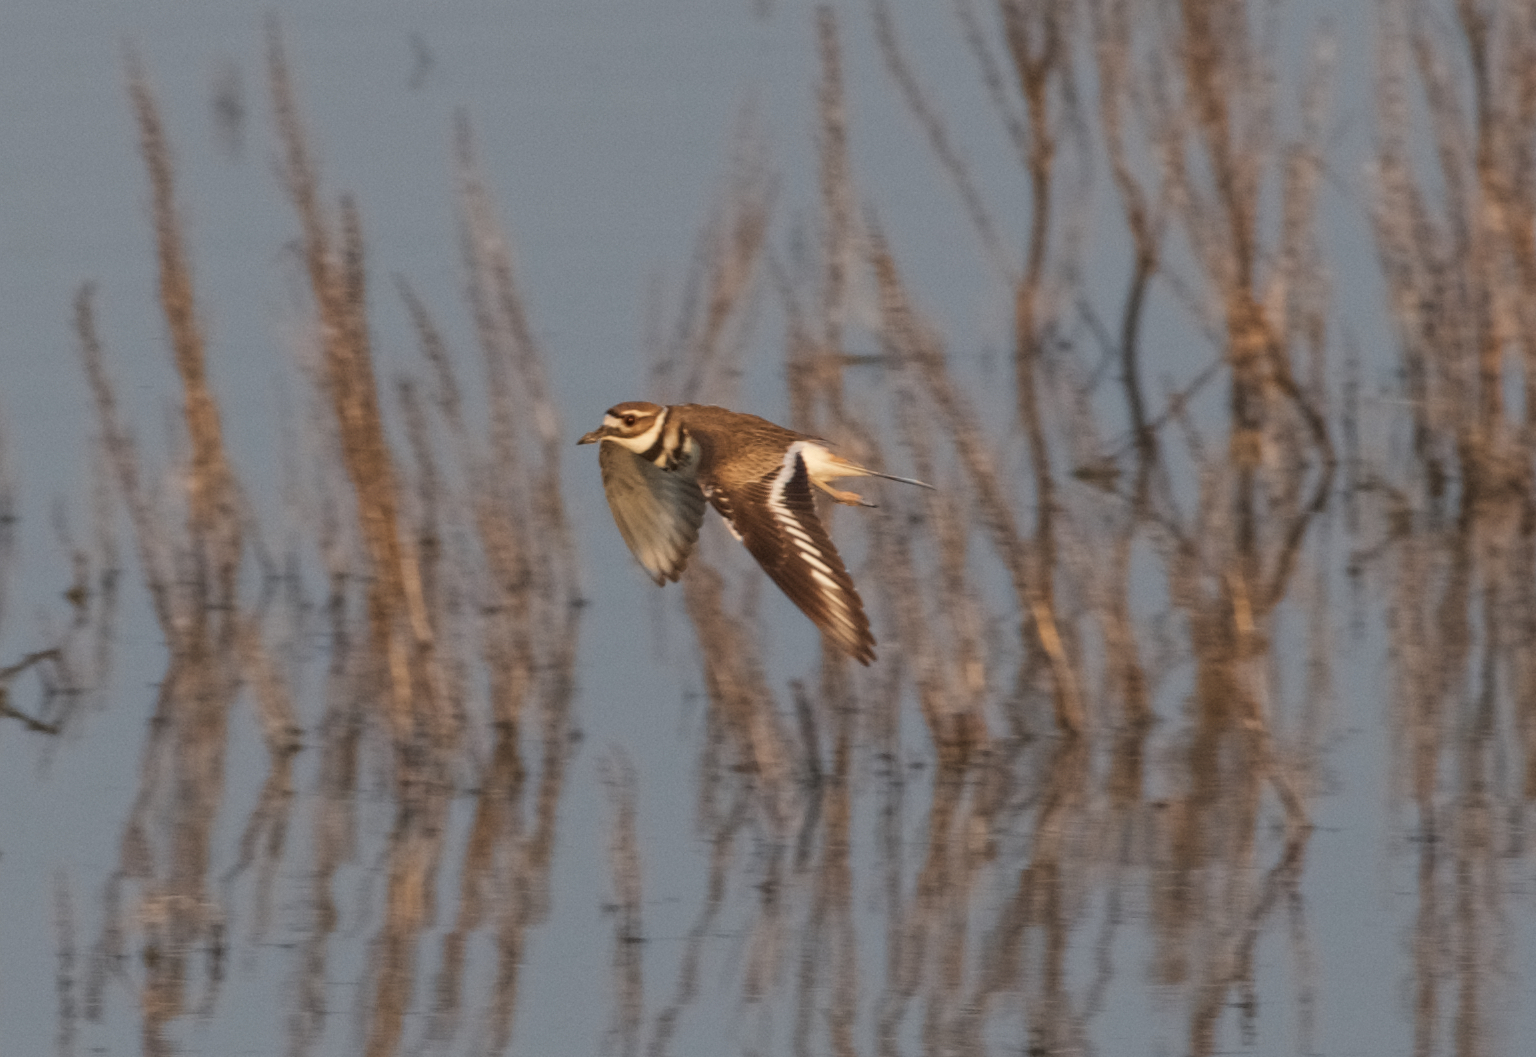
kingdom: Animalia
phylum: Chordata
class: Aves
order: Charadriiformes
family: Charadriidae
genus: Charadrius
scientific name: Charadrius vociferus
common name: Killdeer
